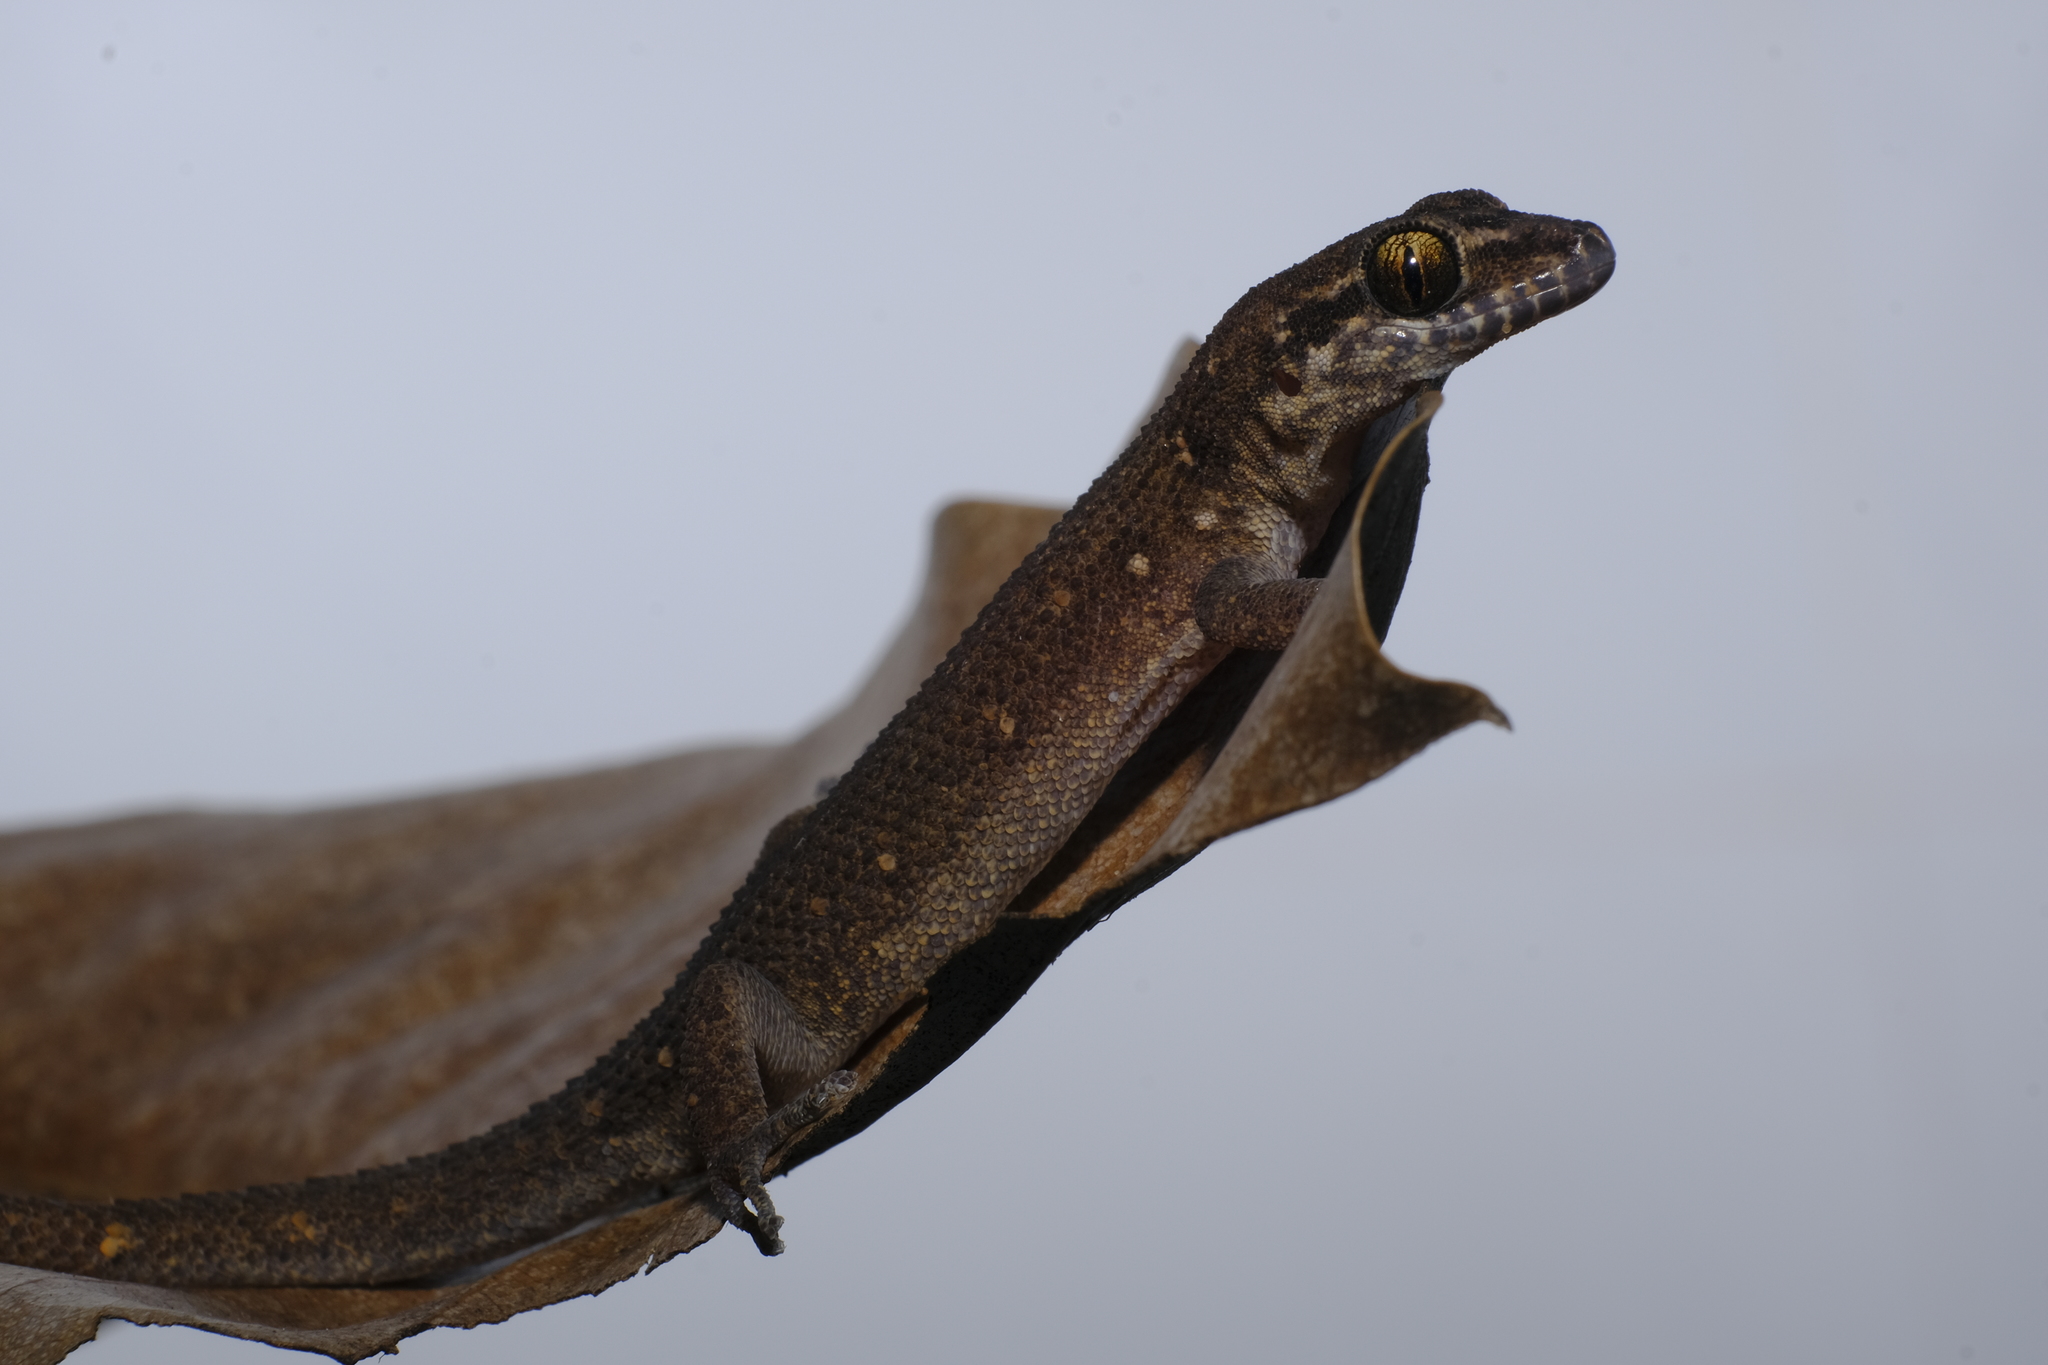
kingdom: Animalia
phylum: Chordata
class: Squamata
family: Gekkonidae
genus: Dixonius
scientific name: Dixonius aaronbaueri
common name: Bauer’s leaf-toed gecko
